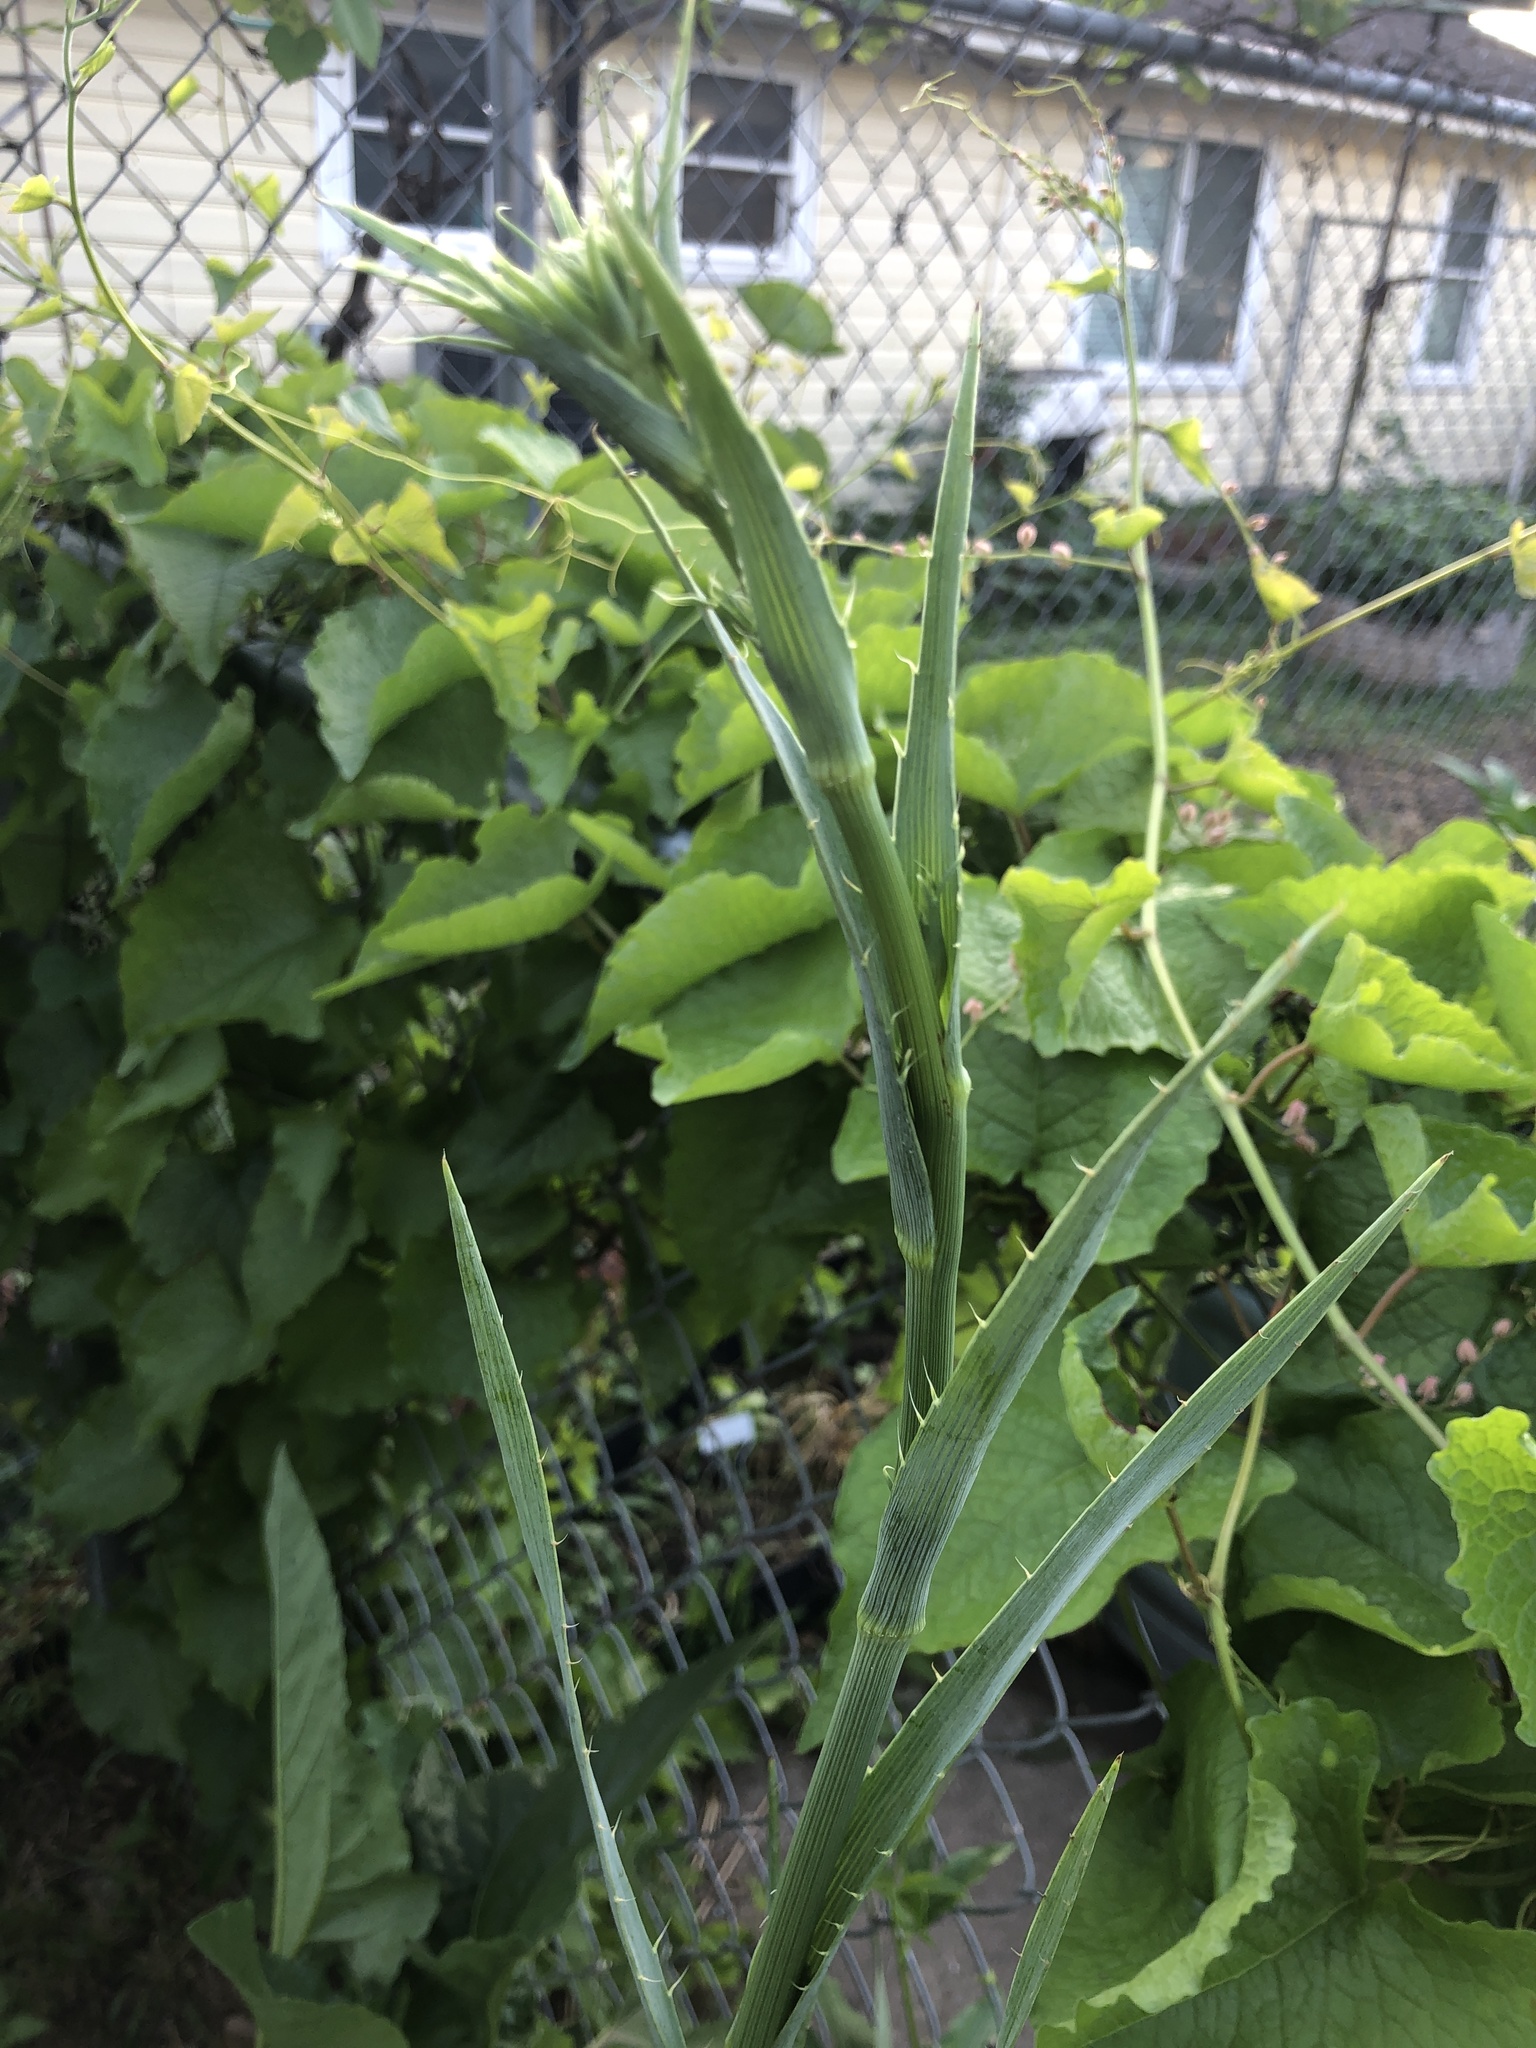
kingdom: Plantae
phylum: Tracheophyta
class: Magnoliopsida
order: Apiales
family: Apiaceae
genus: Eryngium
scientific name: Eryngium yuccifolium
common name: Button eryngo
